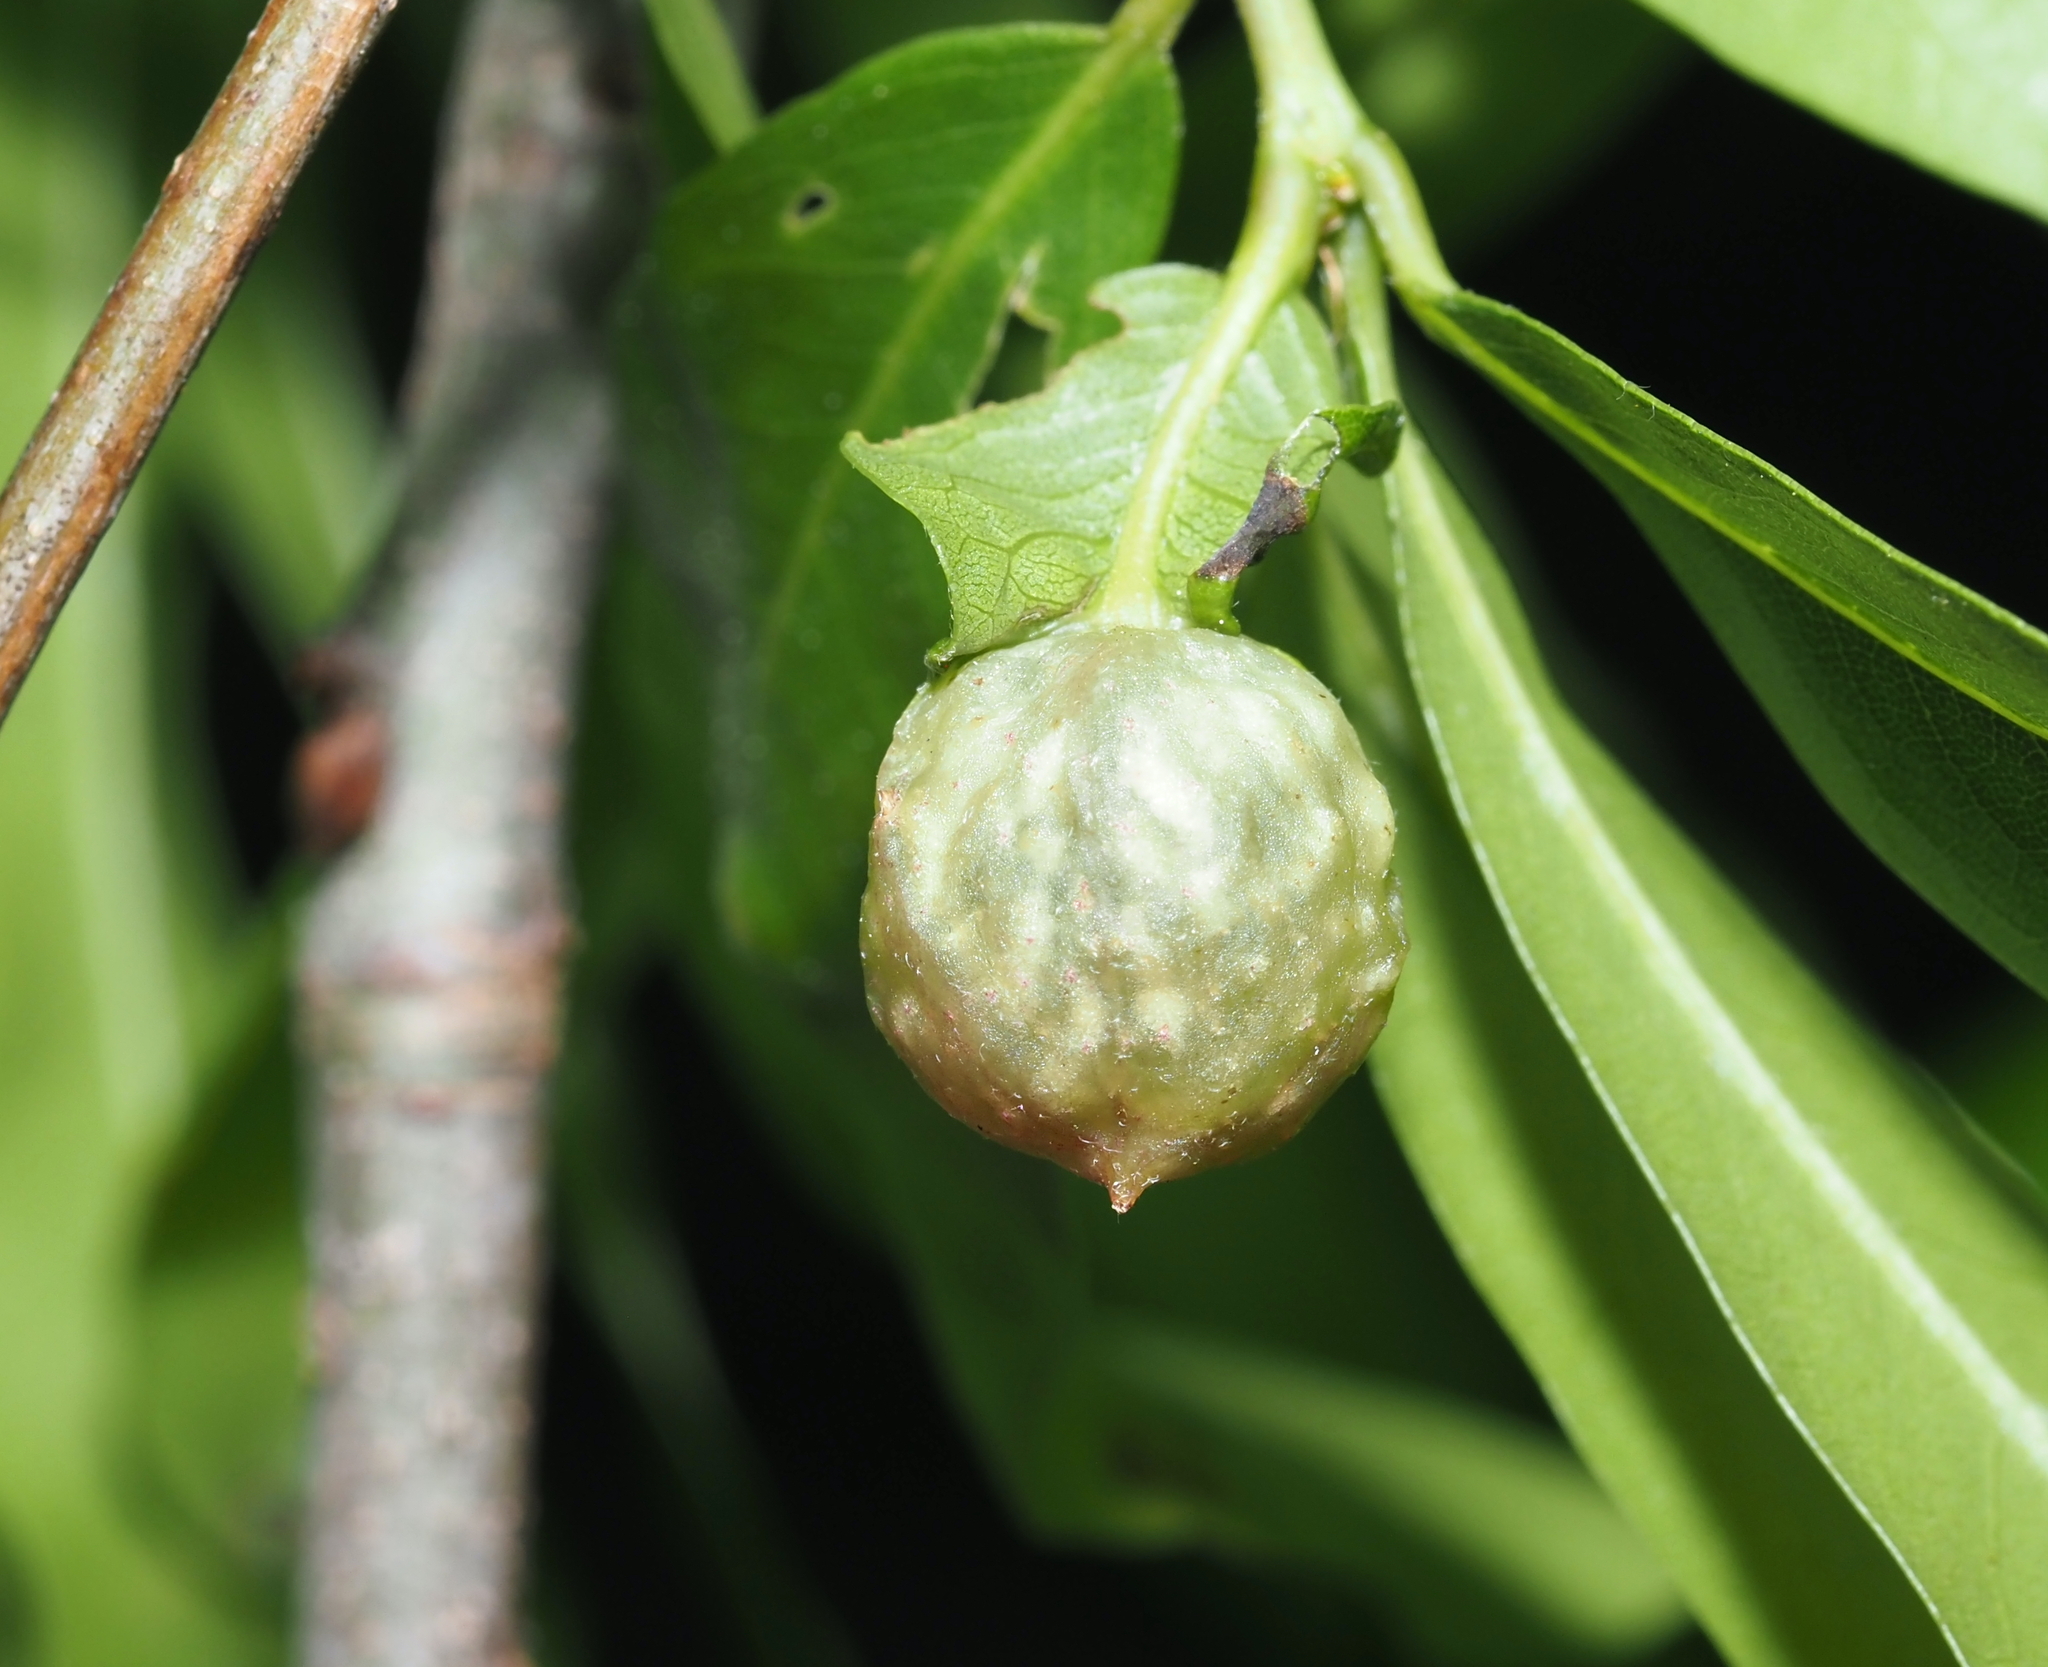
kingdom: Animalia
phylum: Arthropoda
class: Insecta
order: Hymenoptera
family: Cynipidae
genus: Dryocosmus
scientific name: Dryocosmus
